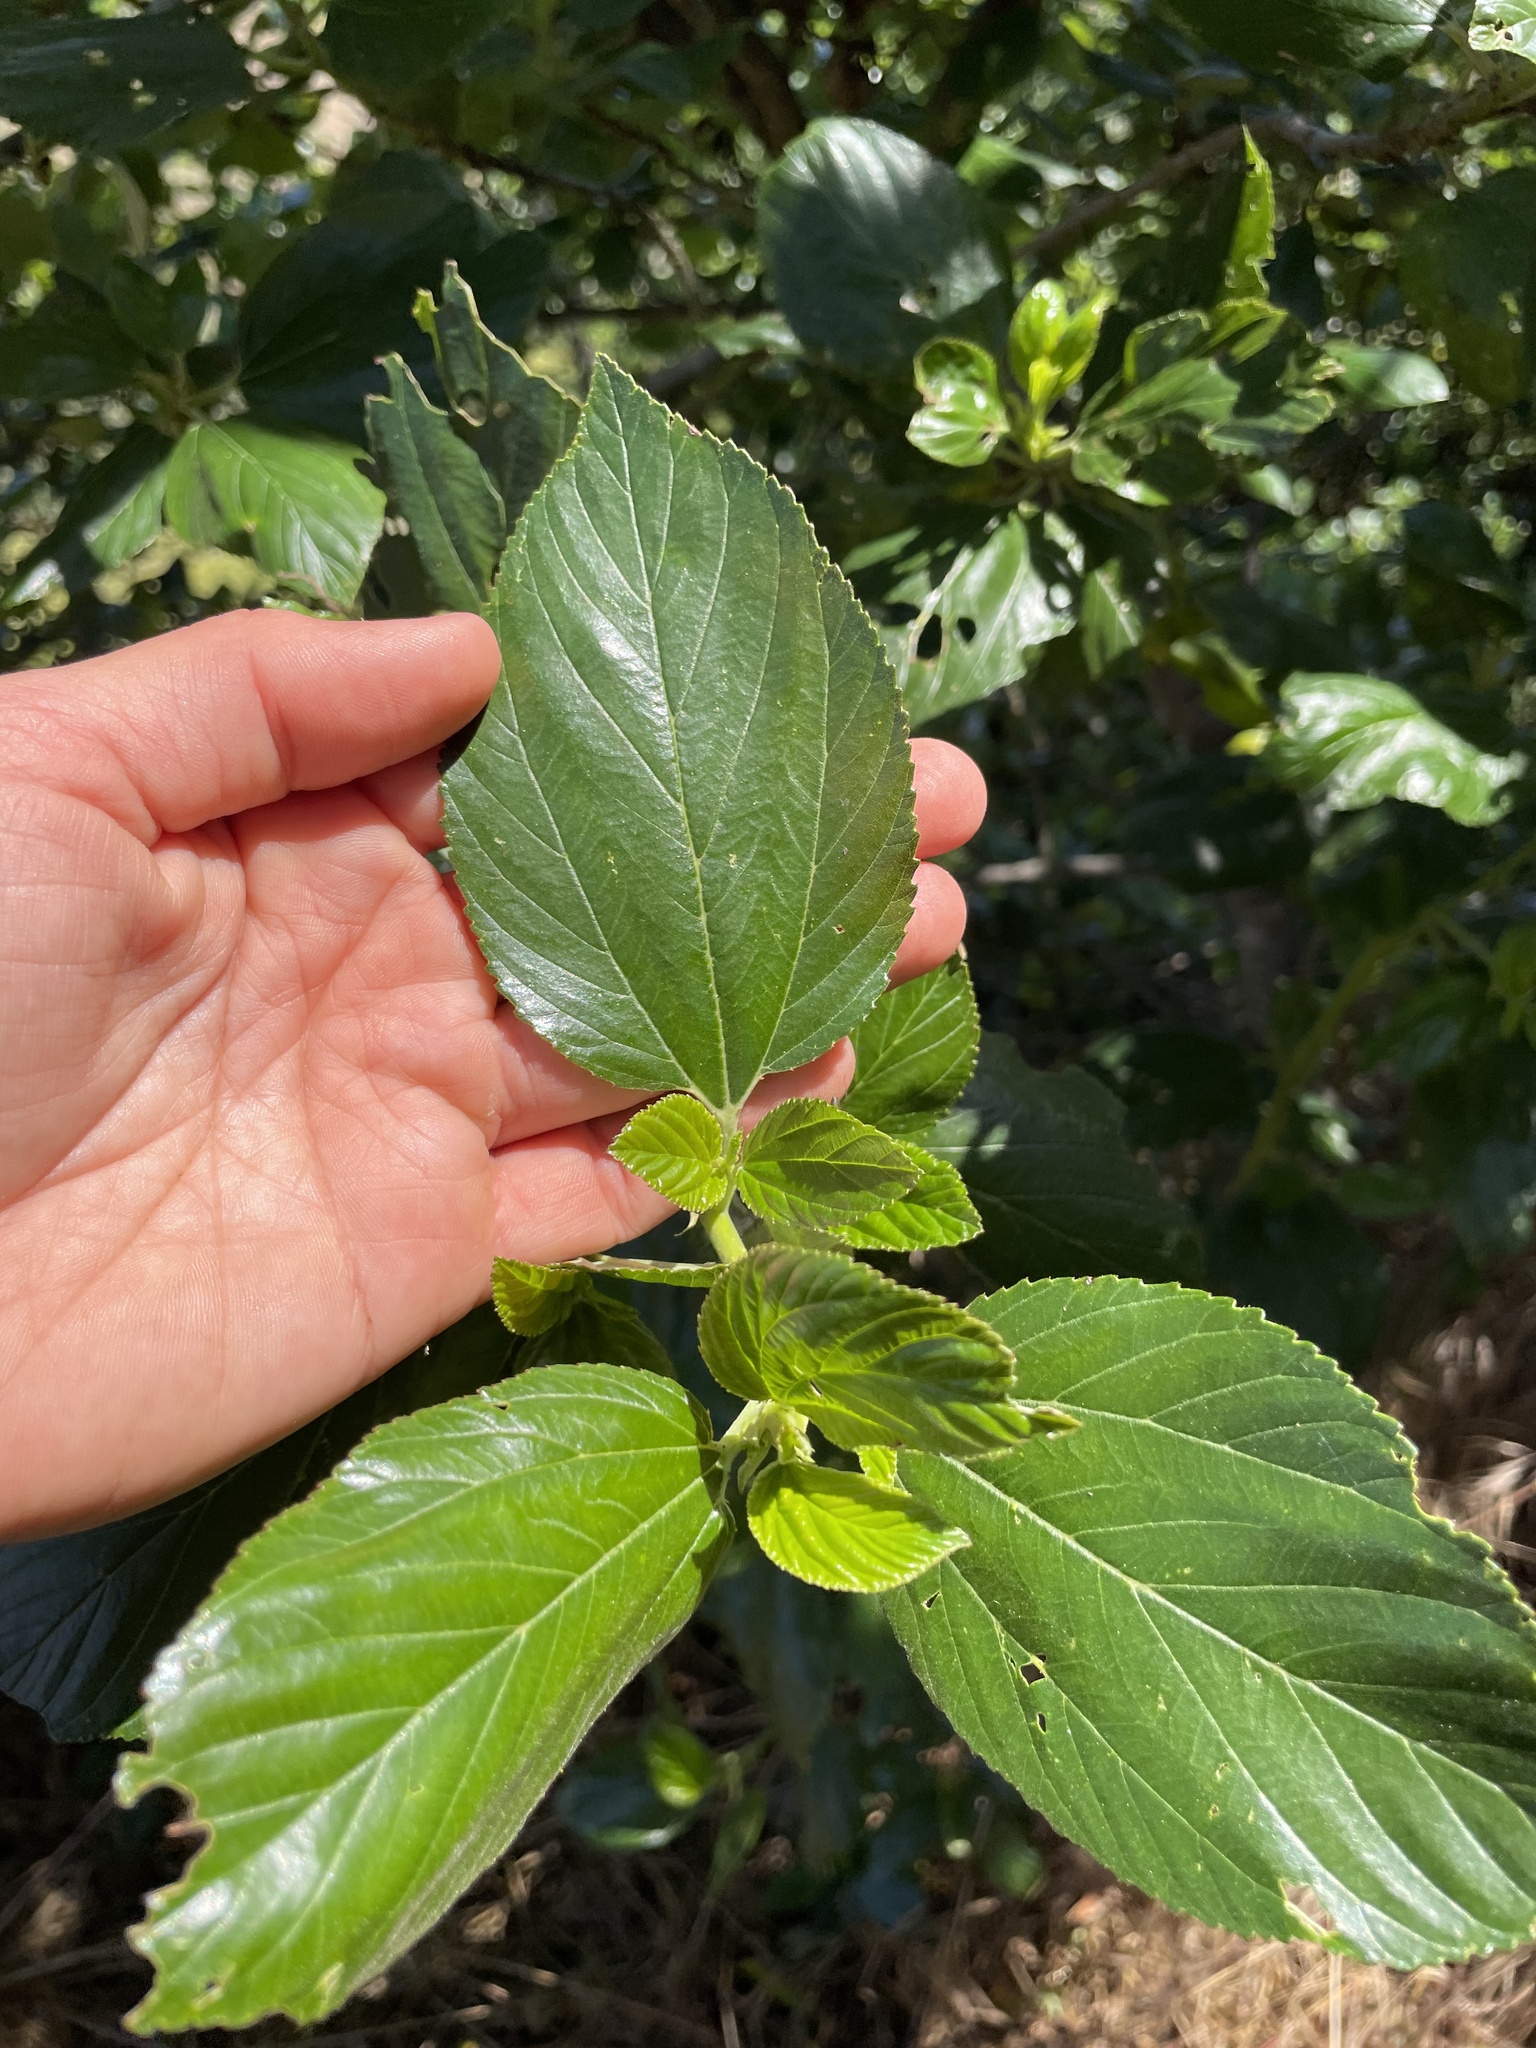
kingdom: Plantae
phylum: Tracheophyta
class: Magnoliopsida
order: Rosales
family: Rhamnaceae
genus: Ceanothus
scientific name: Ceanothus arboreus
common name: Catalina mountain-lilac
